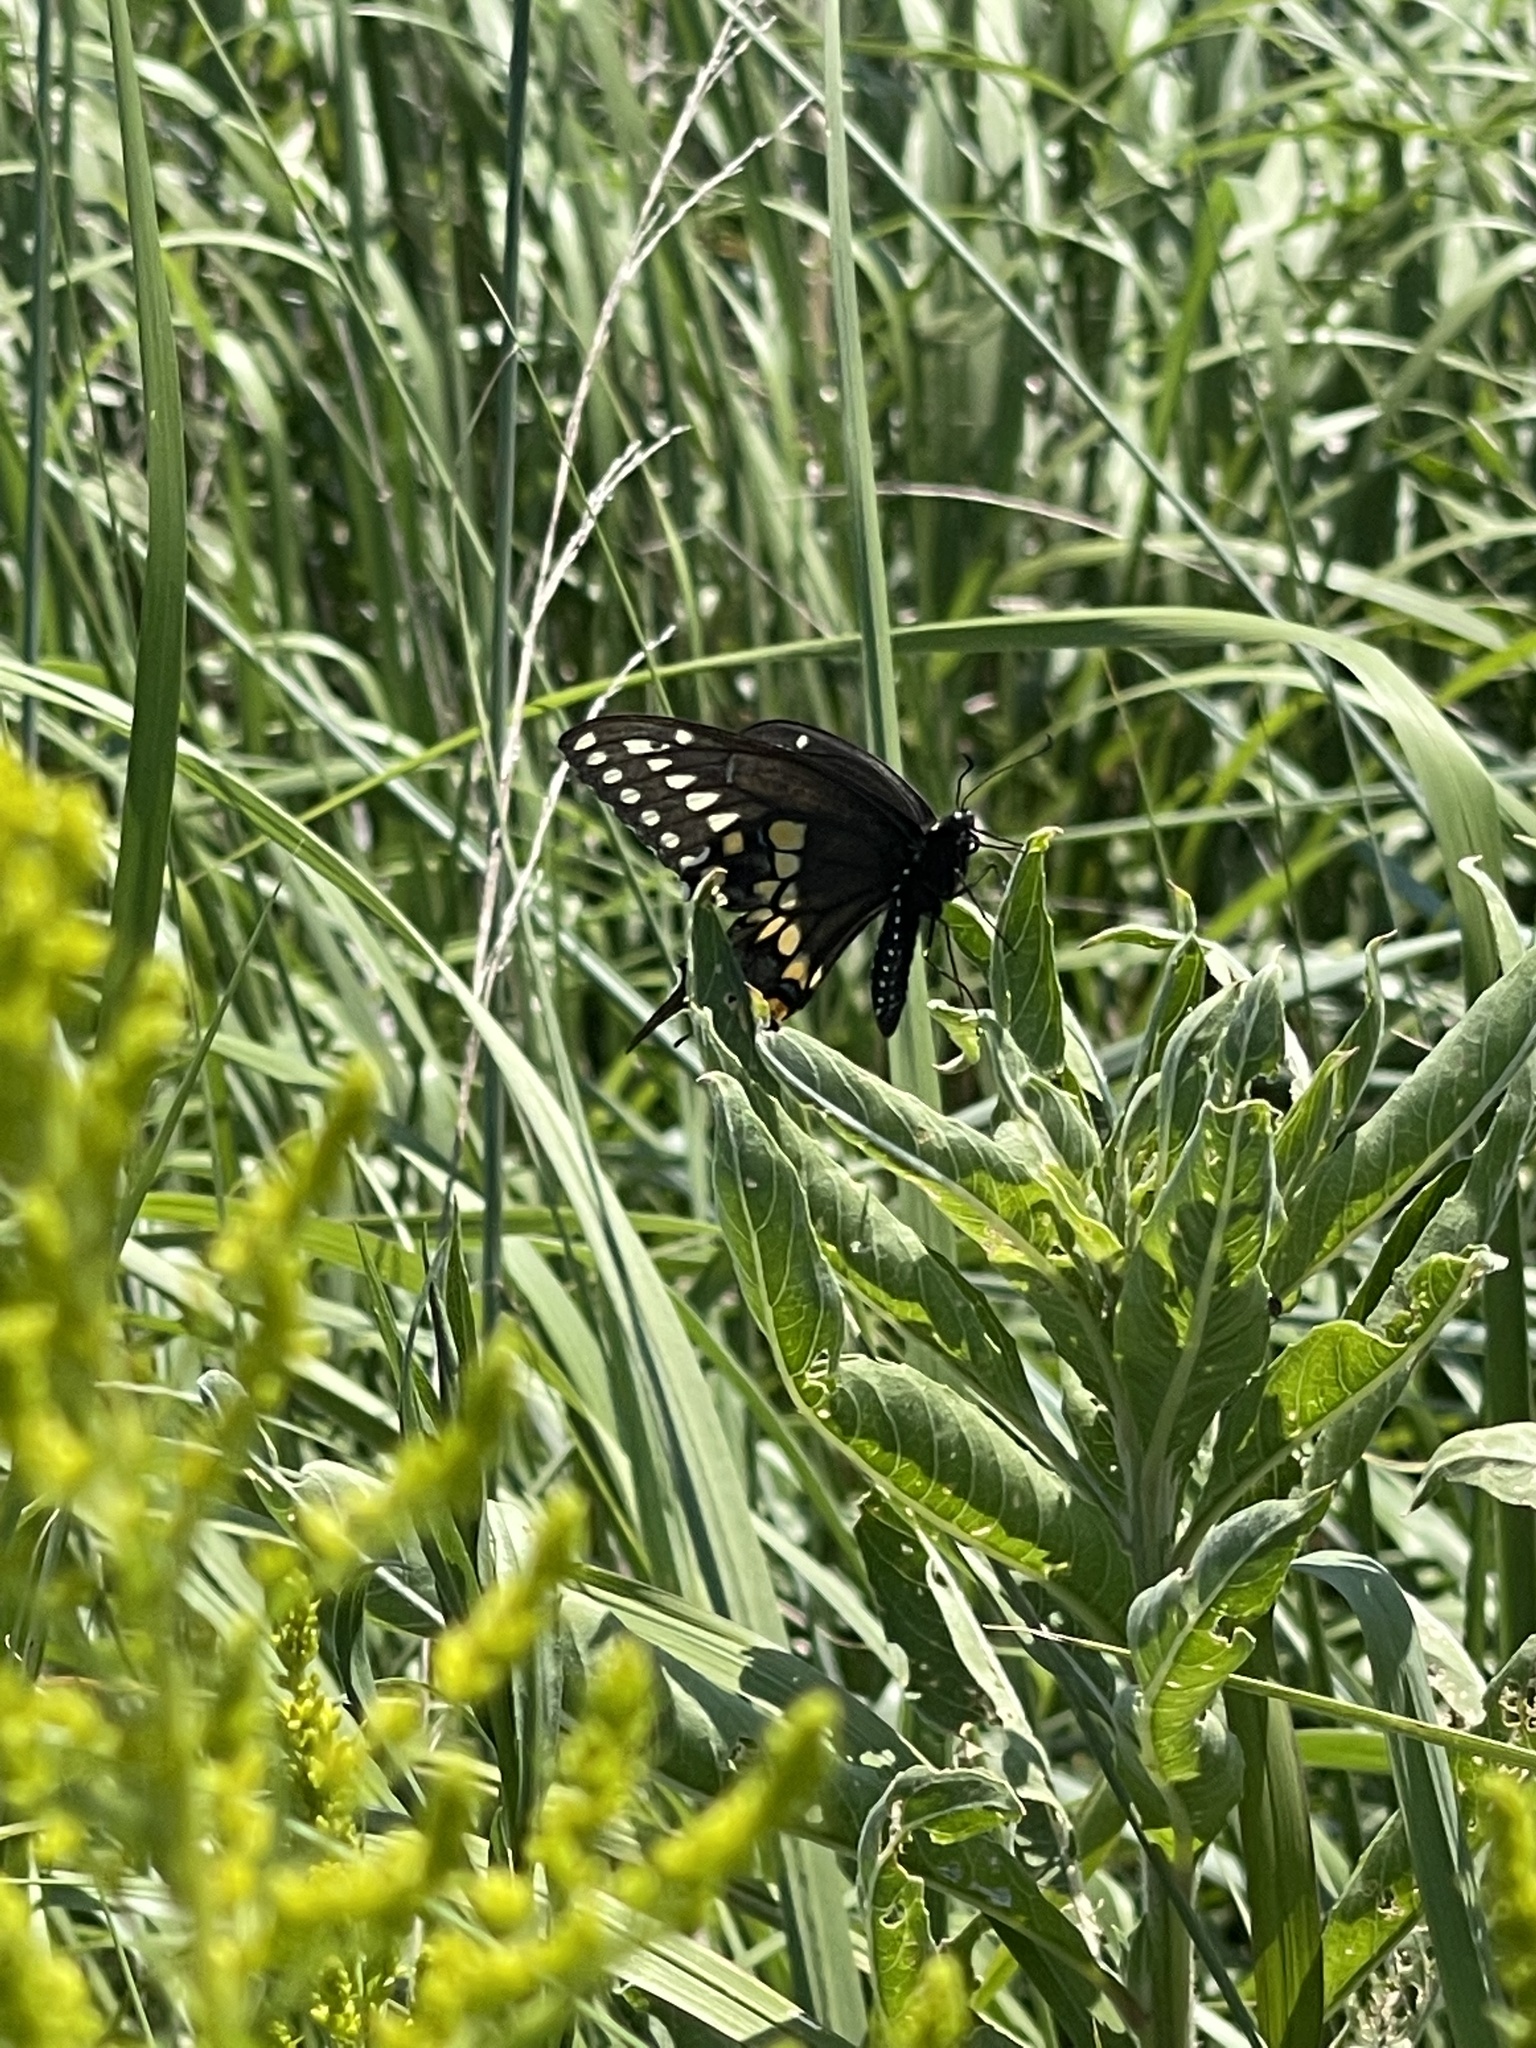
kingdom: Animalia
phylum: Arthropoda
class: Insecta
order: Lepidoptera
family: Papilionidae
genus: Papilio
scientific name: Papilio polyxenes
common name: Black swallowtail
